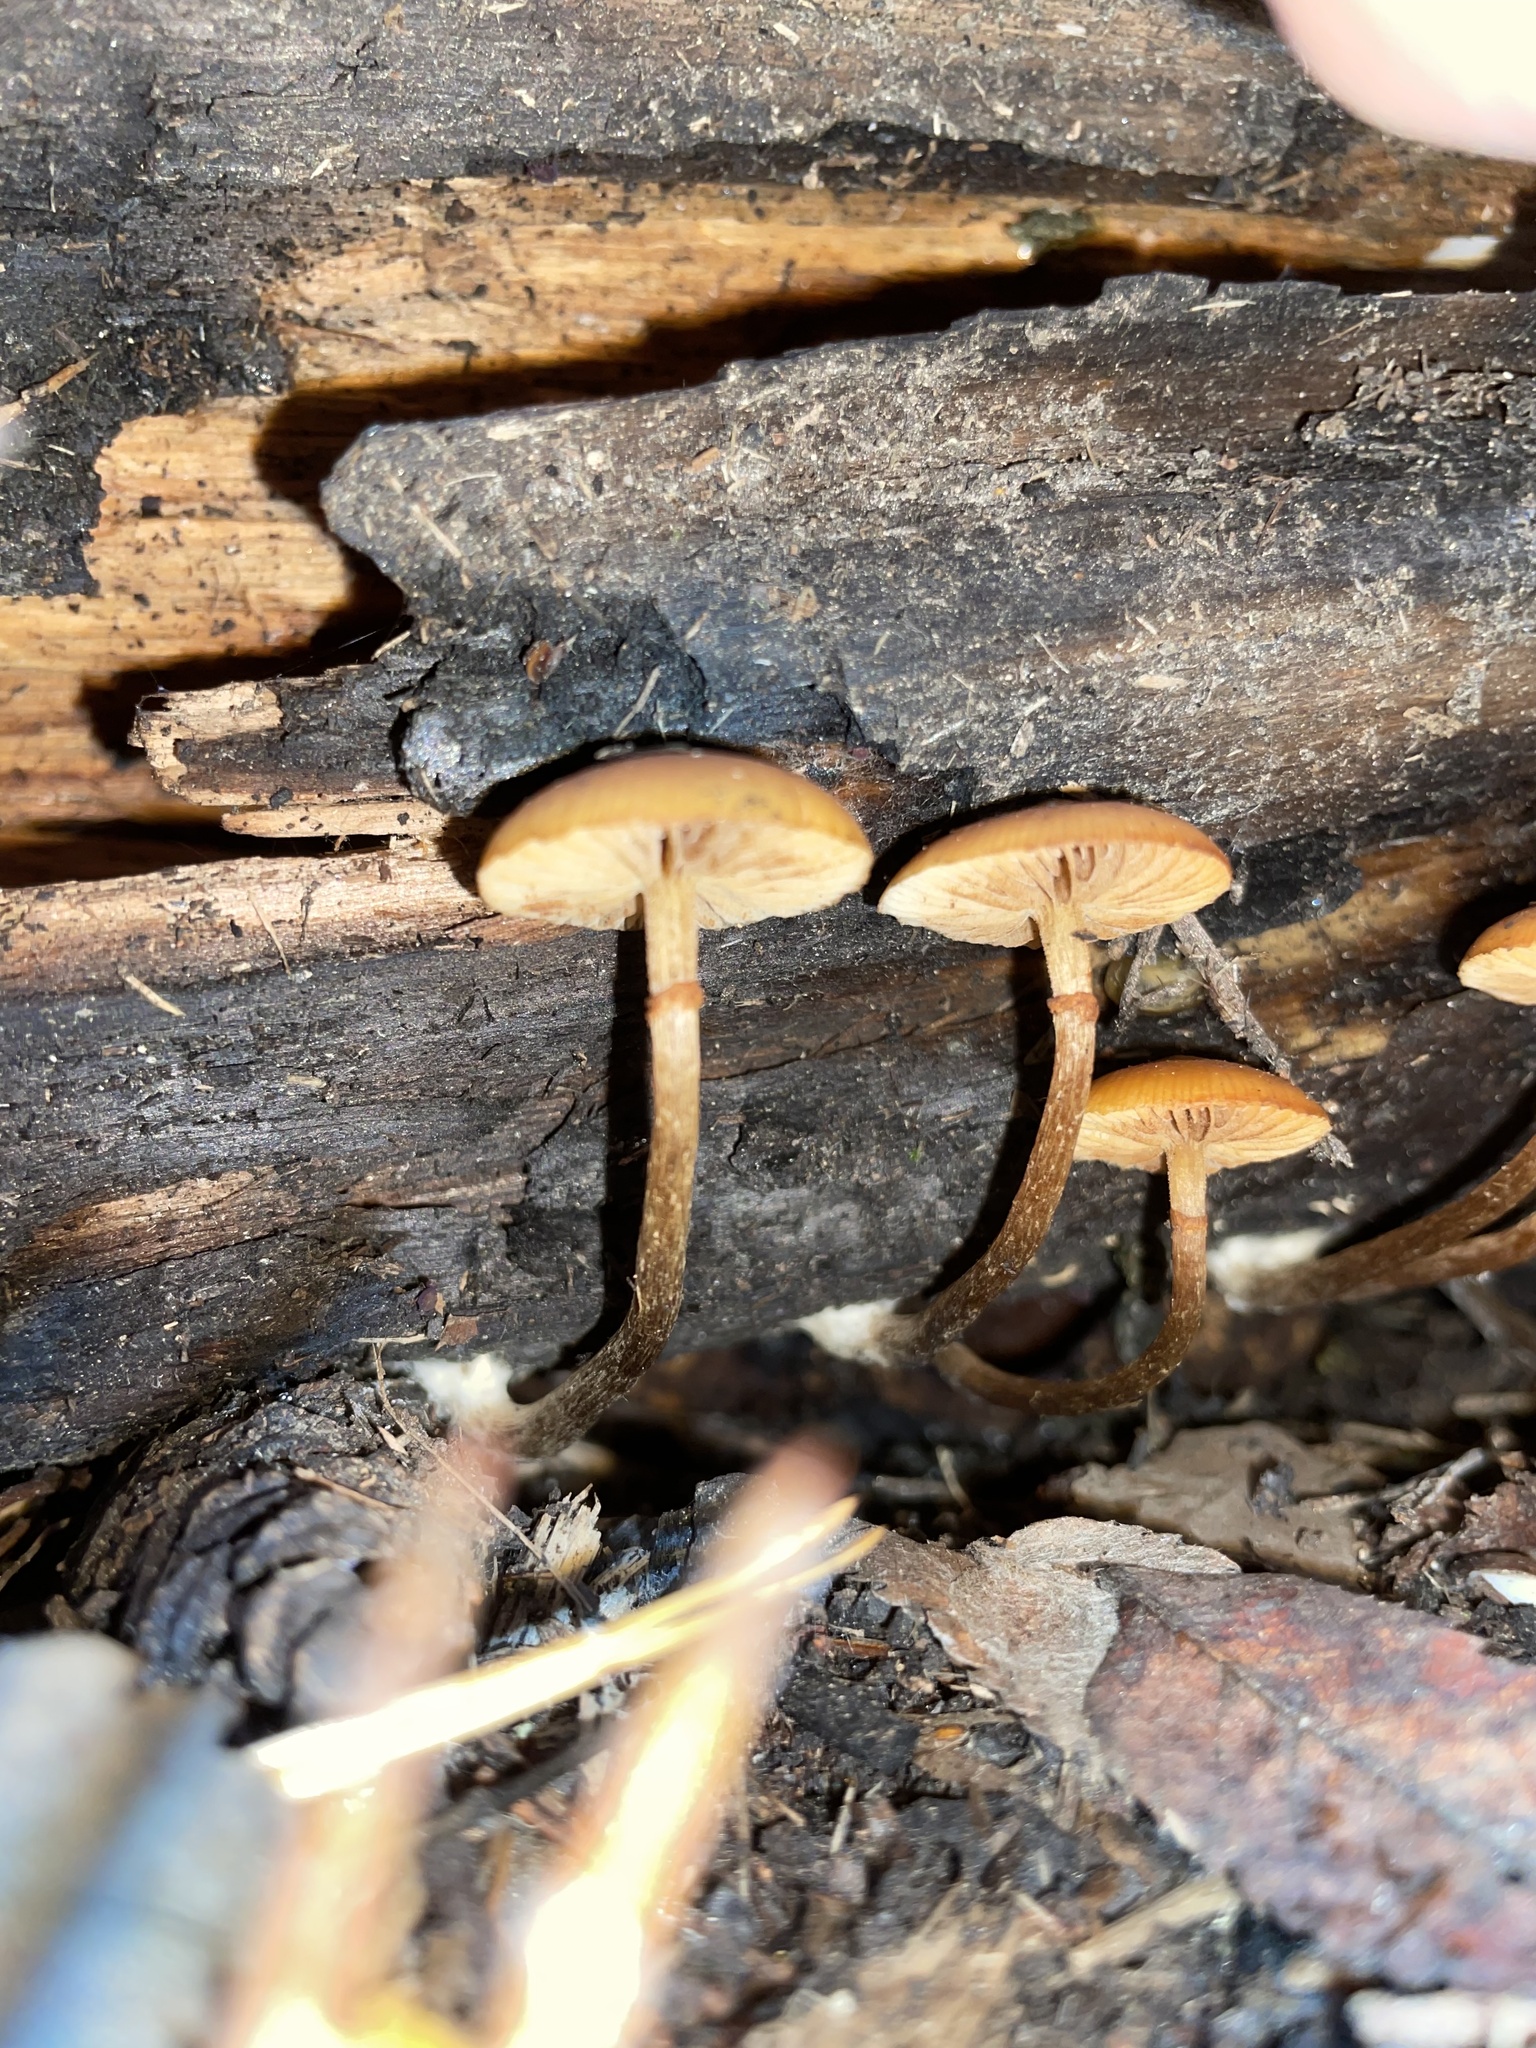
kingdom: Fungi
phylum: Basidiomycota
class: Agaricomycetes
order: Agaricales
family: Hymenogastraceae
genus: Galerina
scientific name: Galerina marginata
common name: Funeral bell
